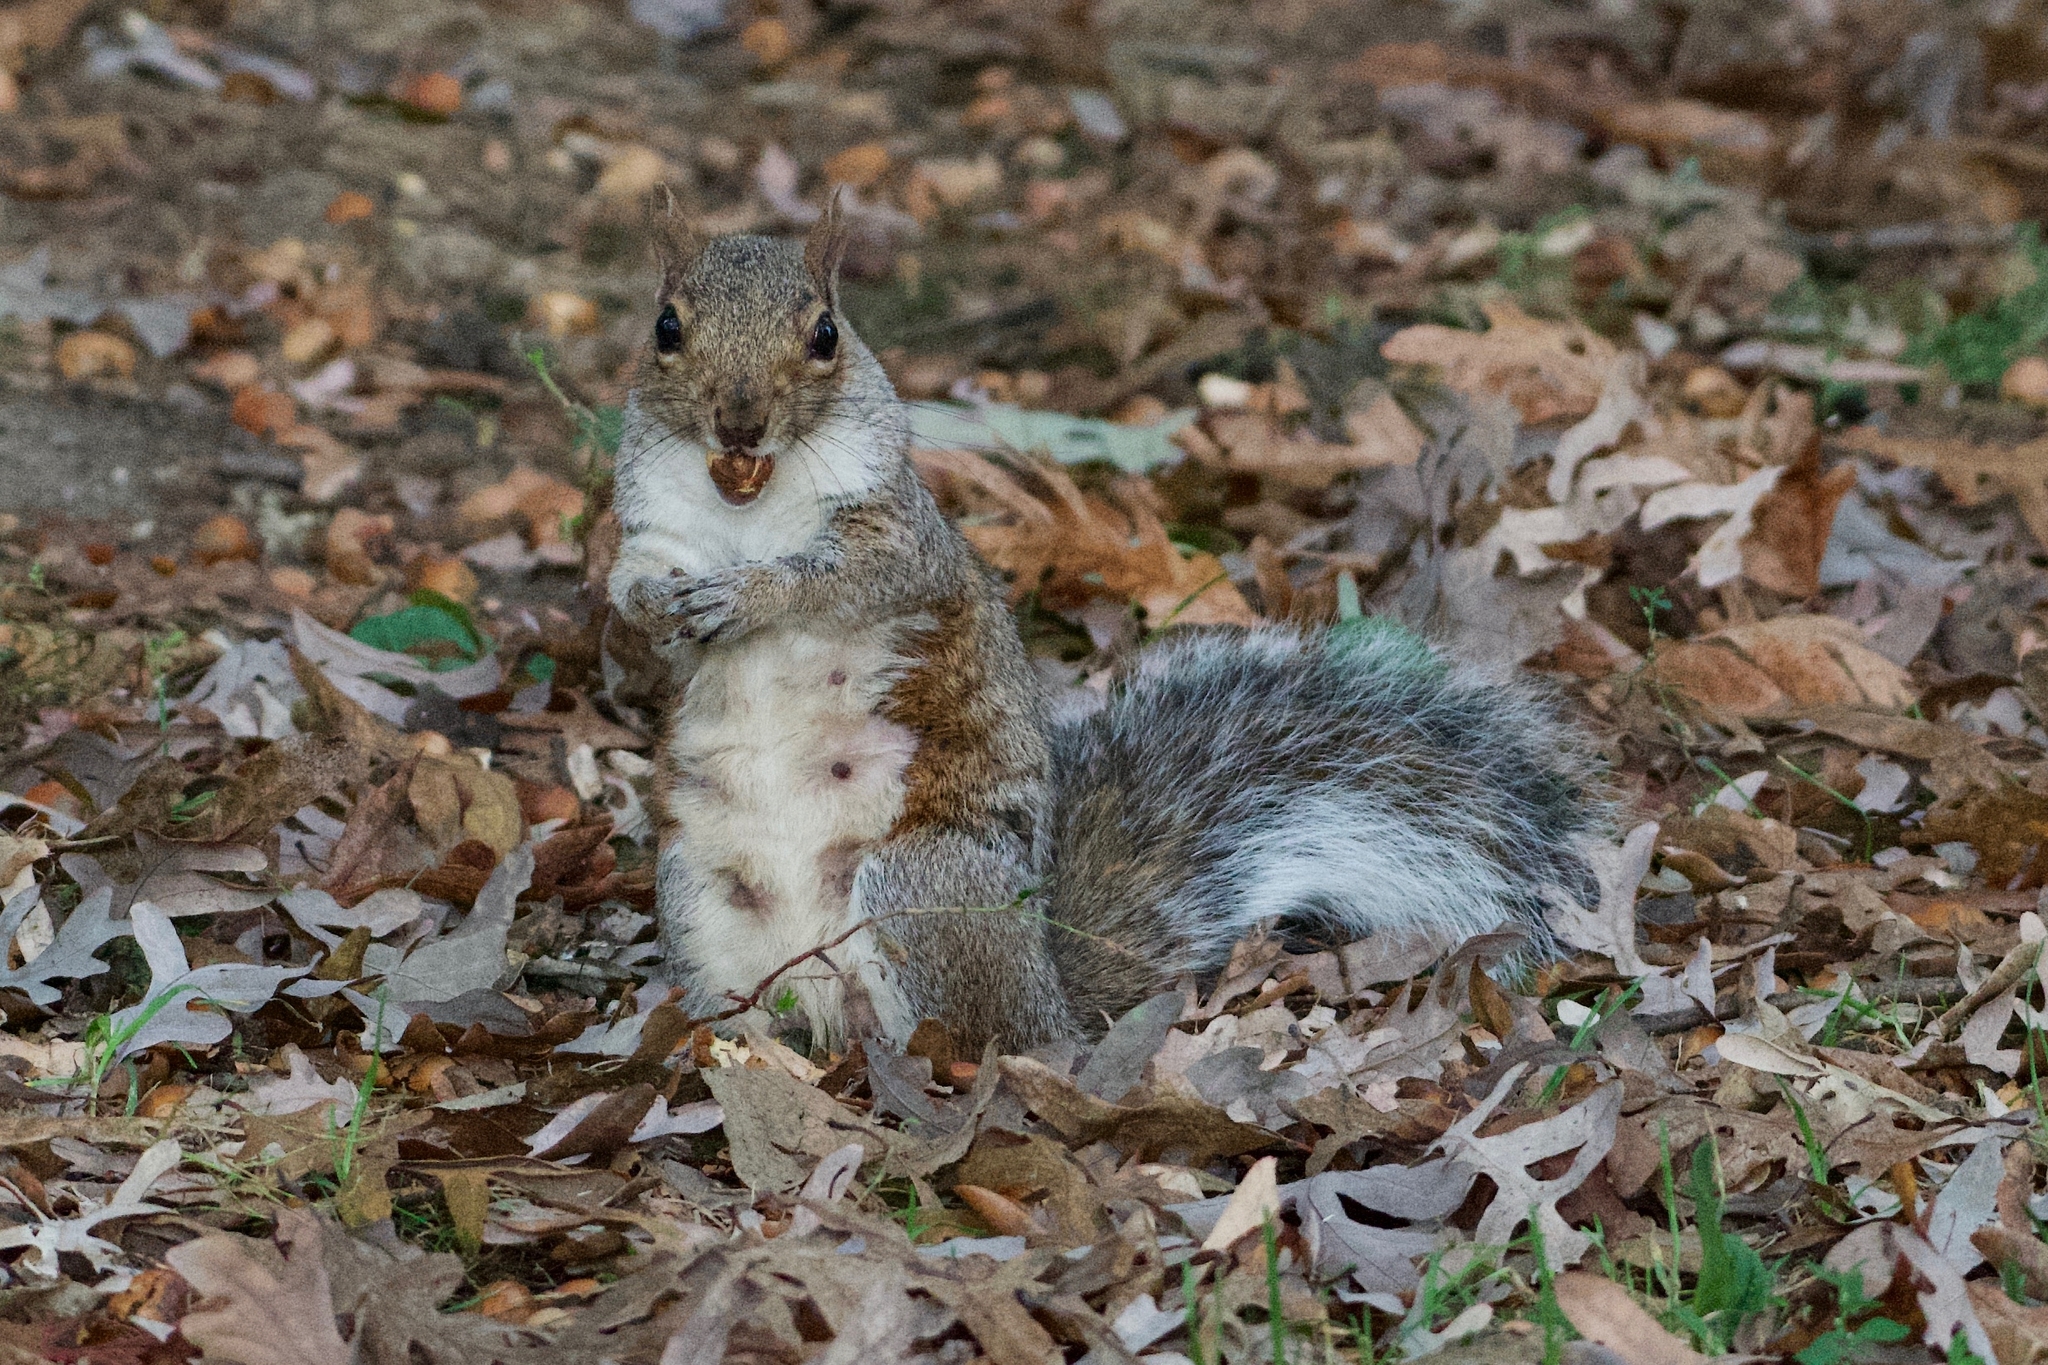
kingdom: Animalia
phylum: Chordata
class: Mammalia
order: Rodentia
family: Sciuridae
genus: Sciurus
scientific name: Sciurus carolinensis
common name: Eastern gray squirrel
